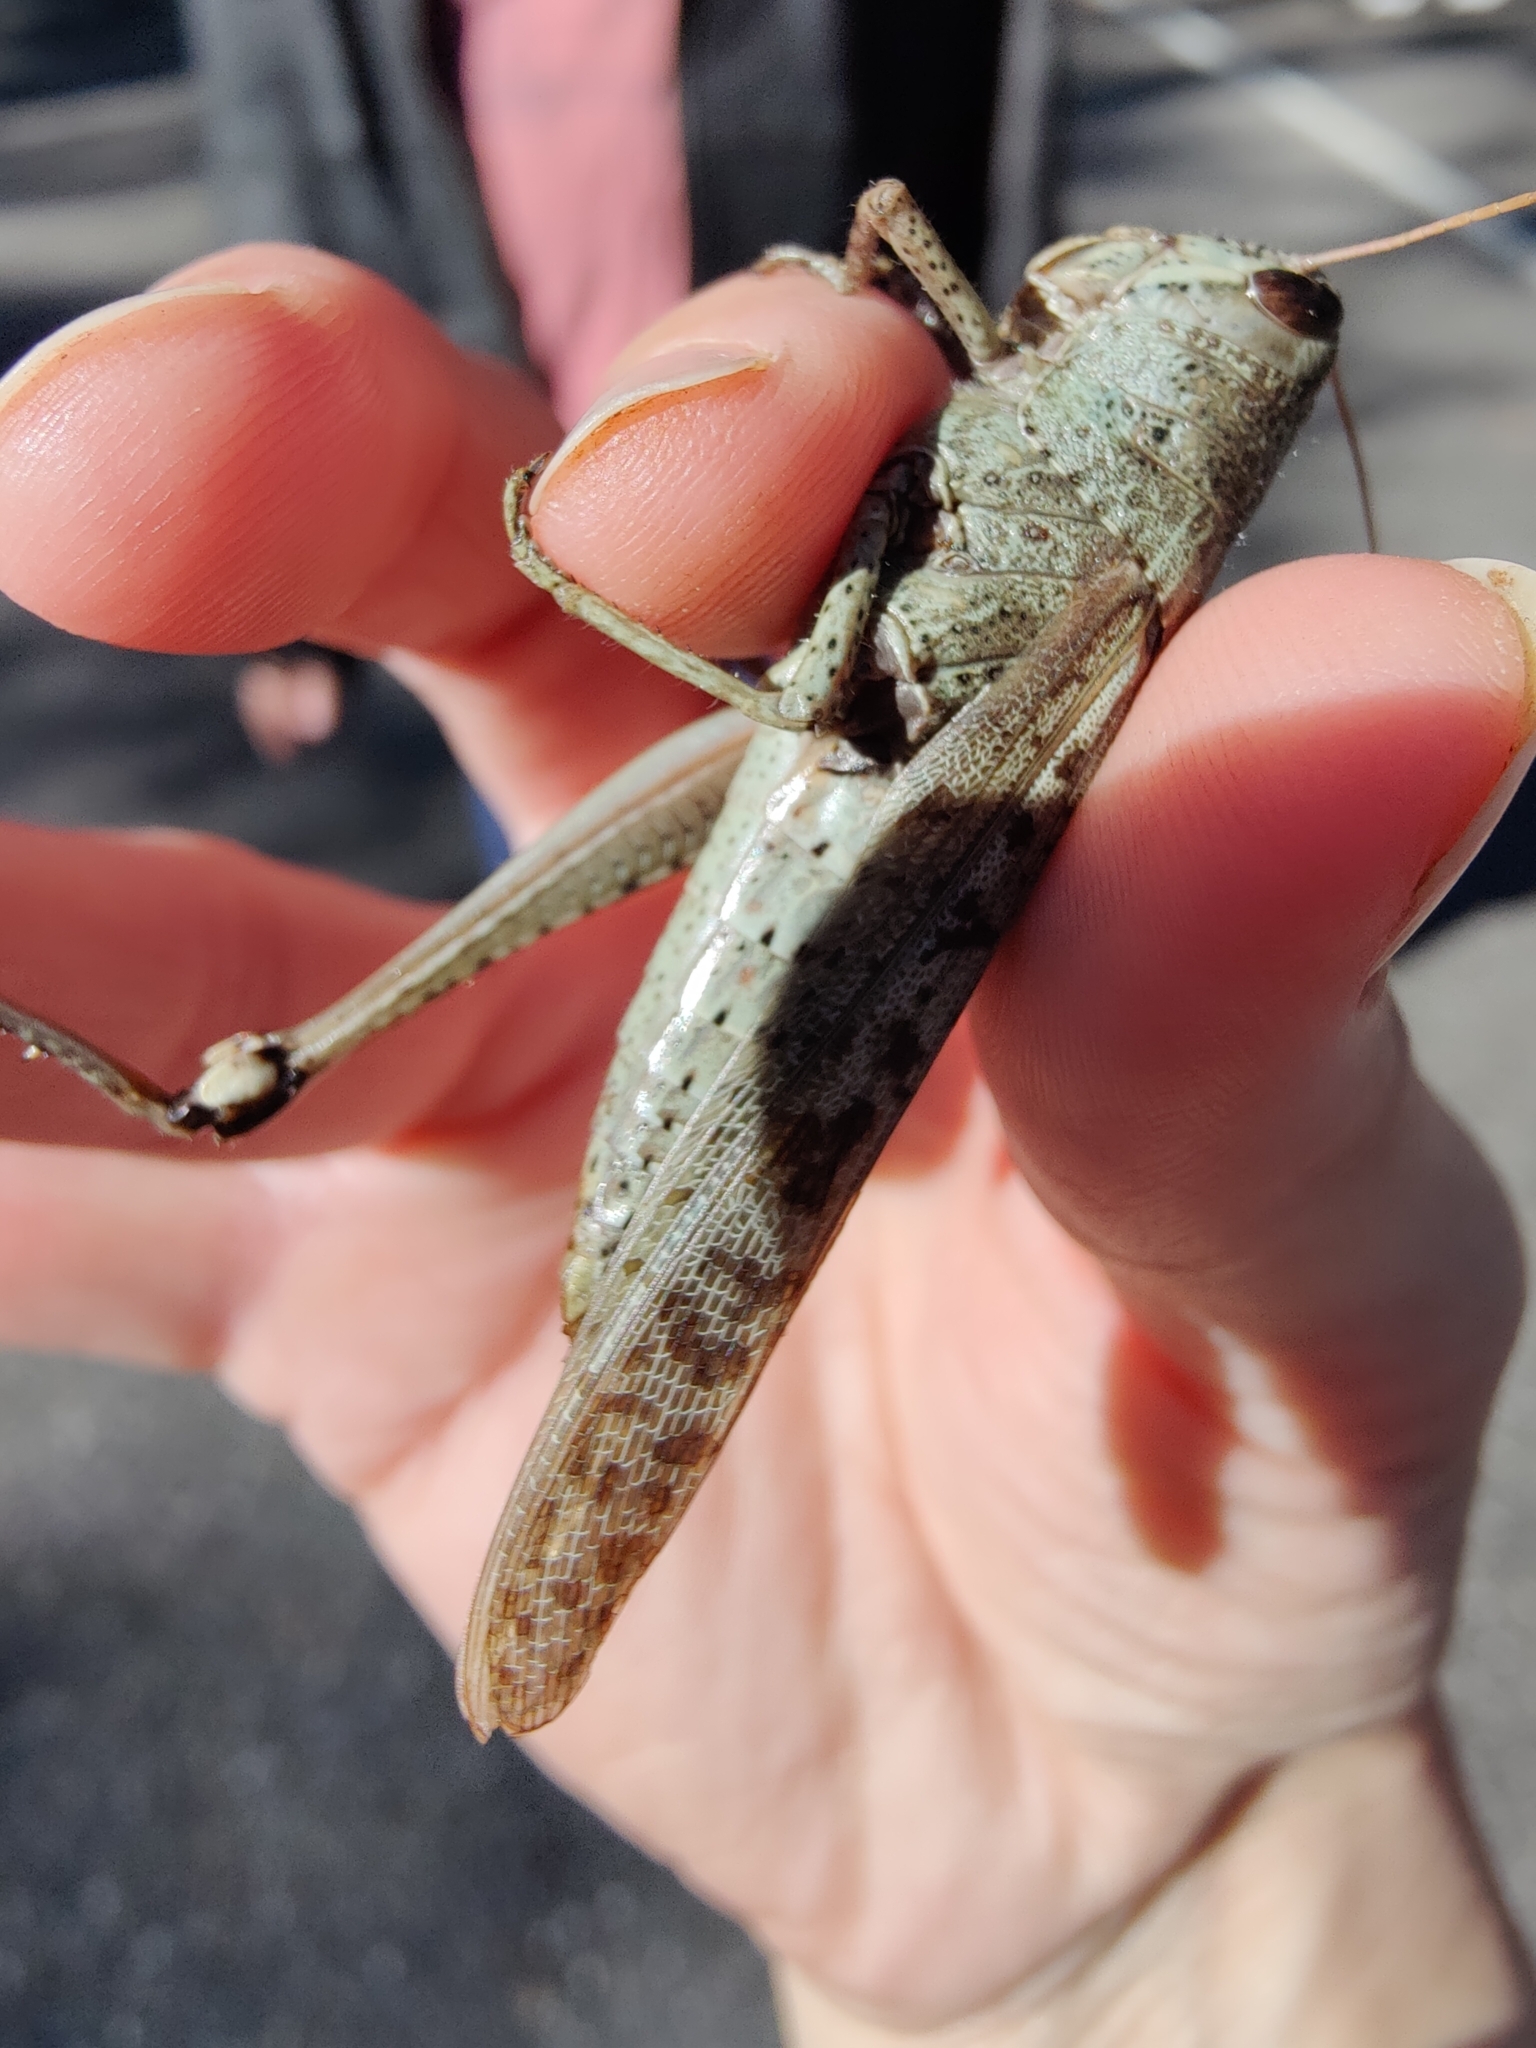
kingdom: Animalia
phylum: Arthropoda
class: Insecta
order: Orthoptera
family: Acrididae
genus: Schistocerca
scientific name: Schistocerca rubiginosa
